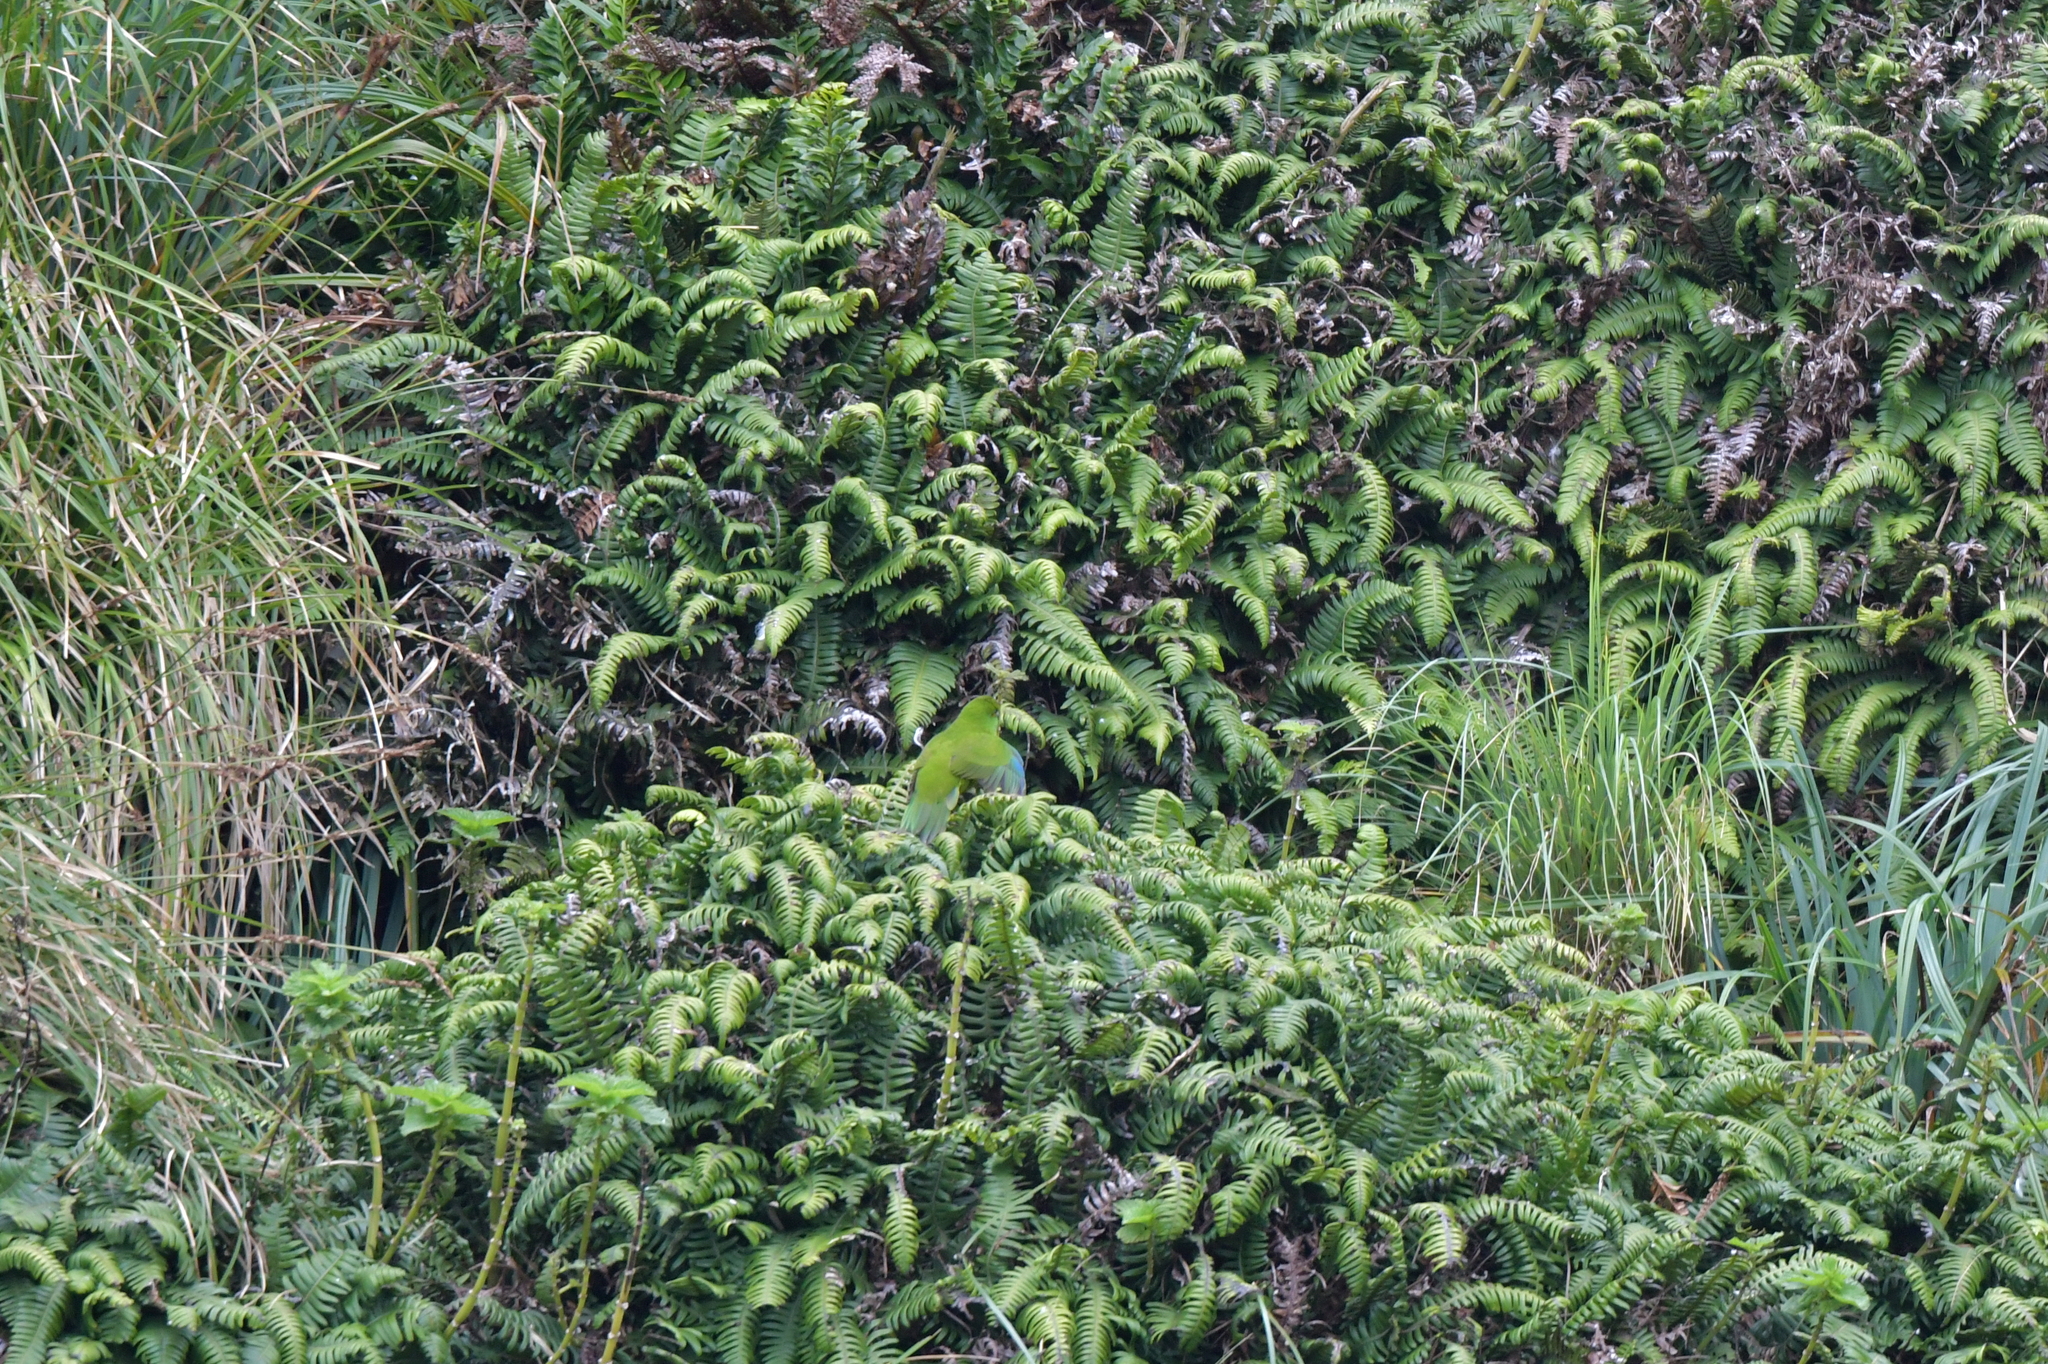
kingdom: Animalia
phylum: Chordata
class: Aves
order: Psittaciformes
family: Psittacidae
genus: Cyanoramphus
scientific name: Cyanoramphus novaezelandiae
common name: Red-fronted parakeet
